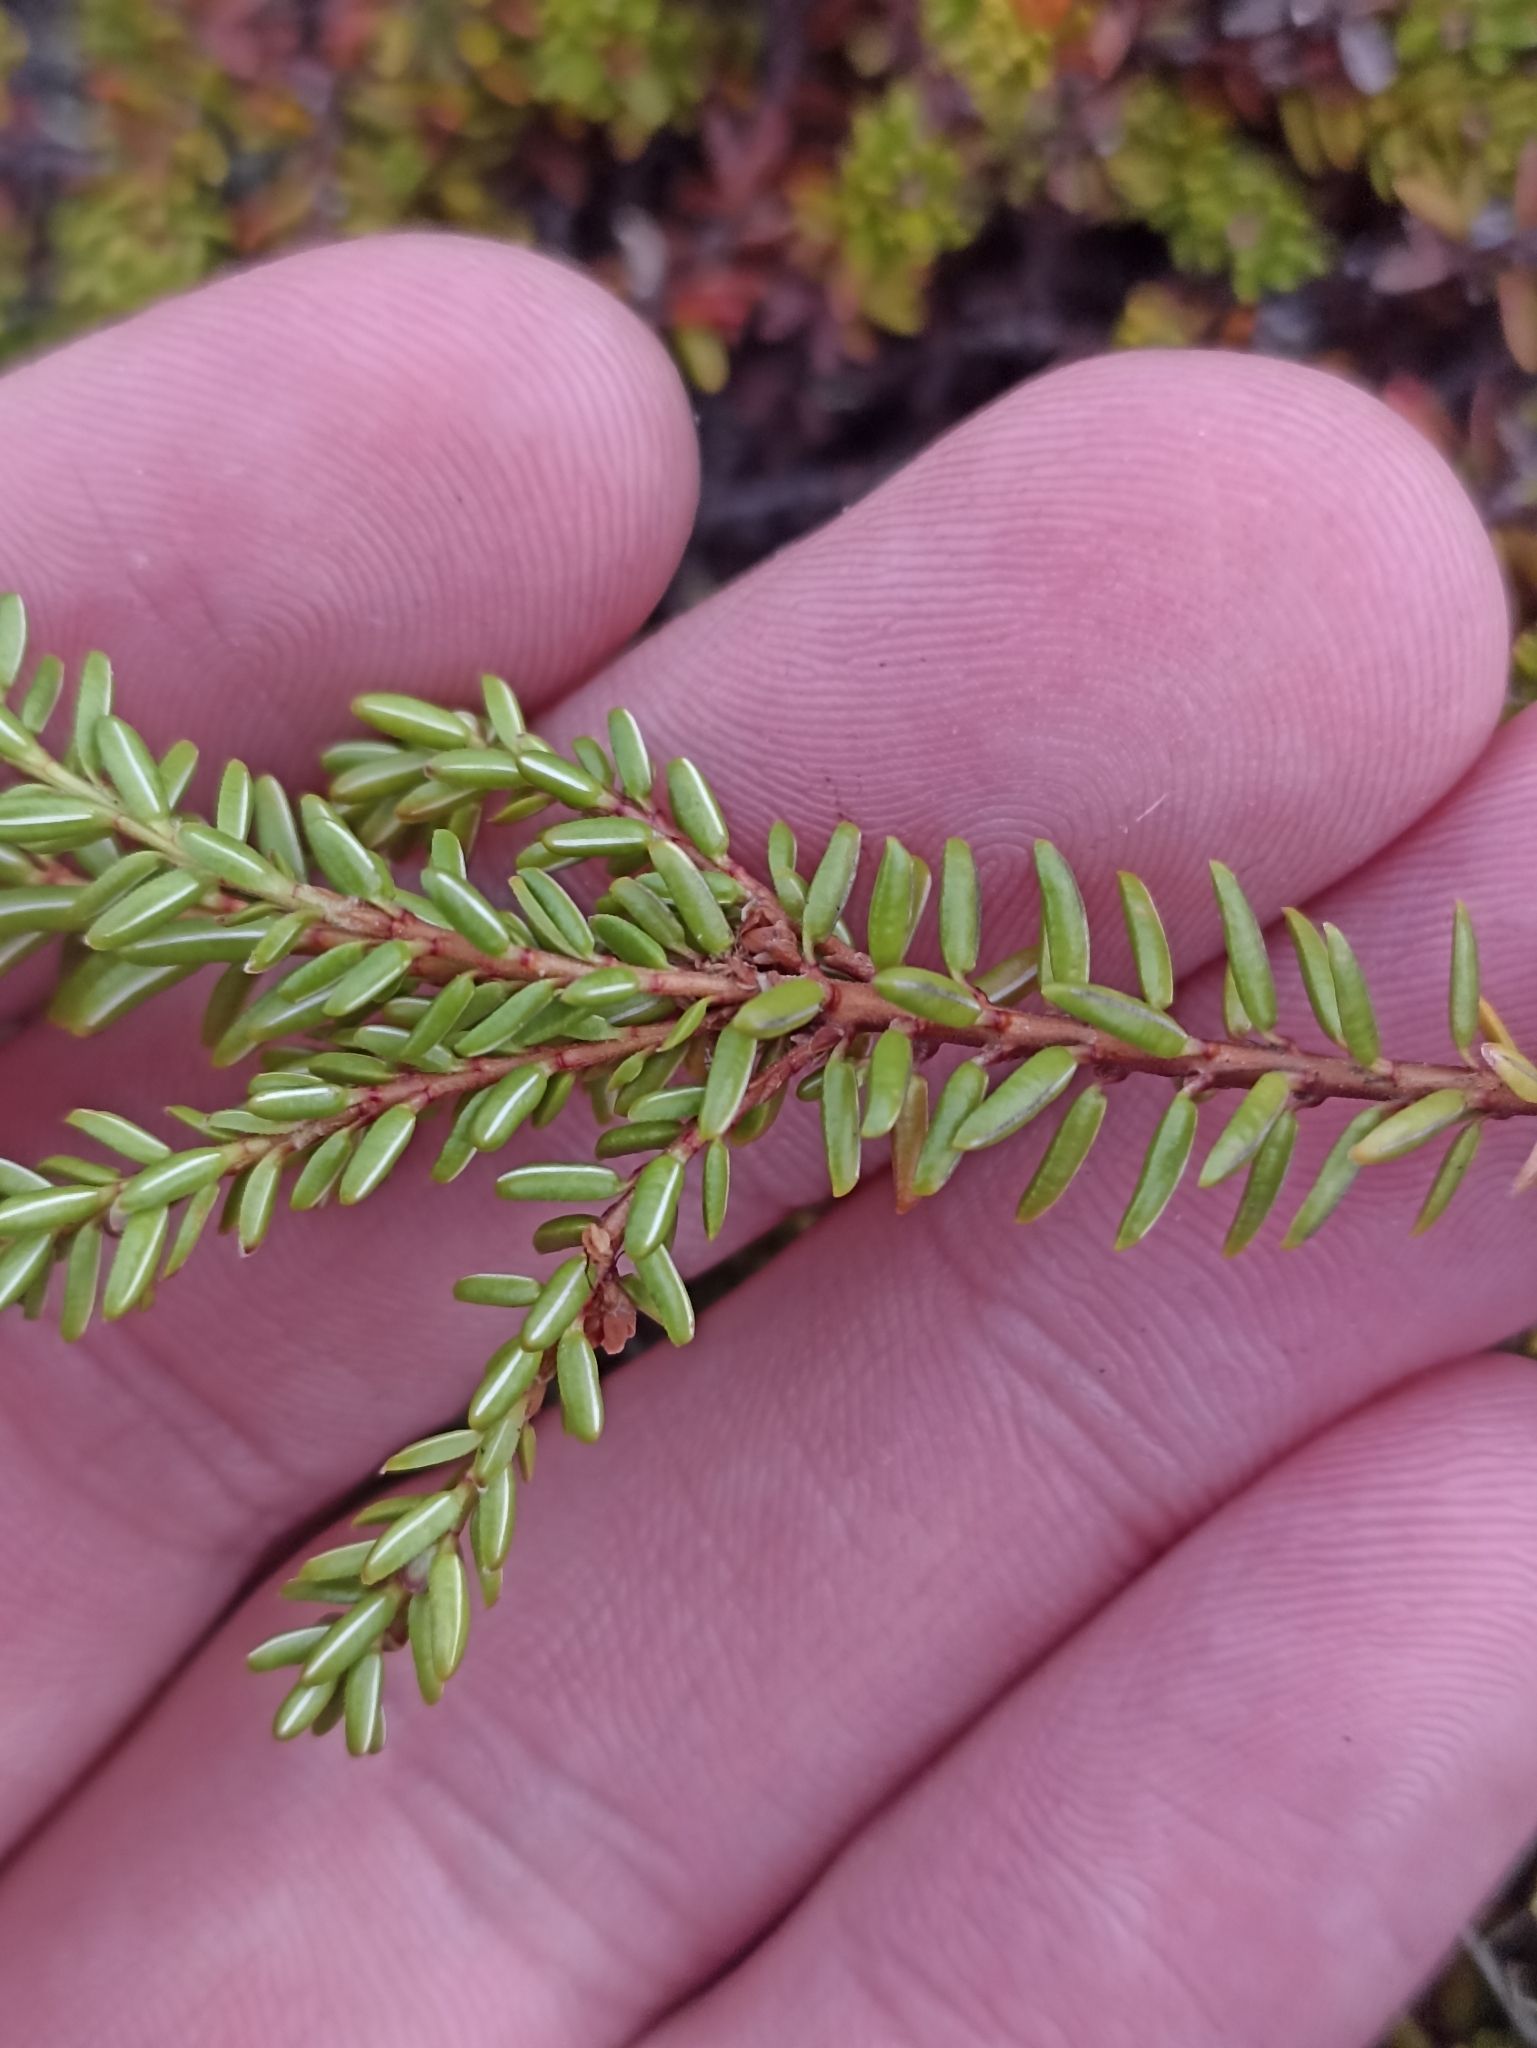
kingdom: Plantae
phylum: Tracheophyta
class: Magnoliopsida
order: Ericales
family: Ericaceae
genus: Empetrum
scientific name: Empetrum nigrum
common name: Black crowberry
